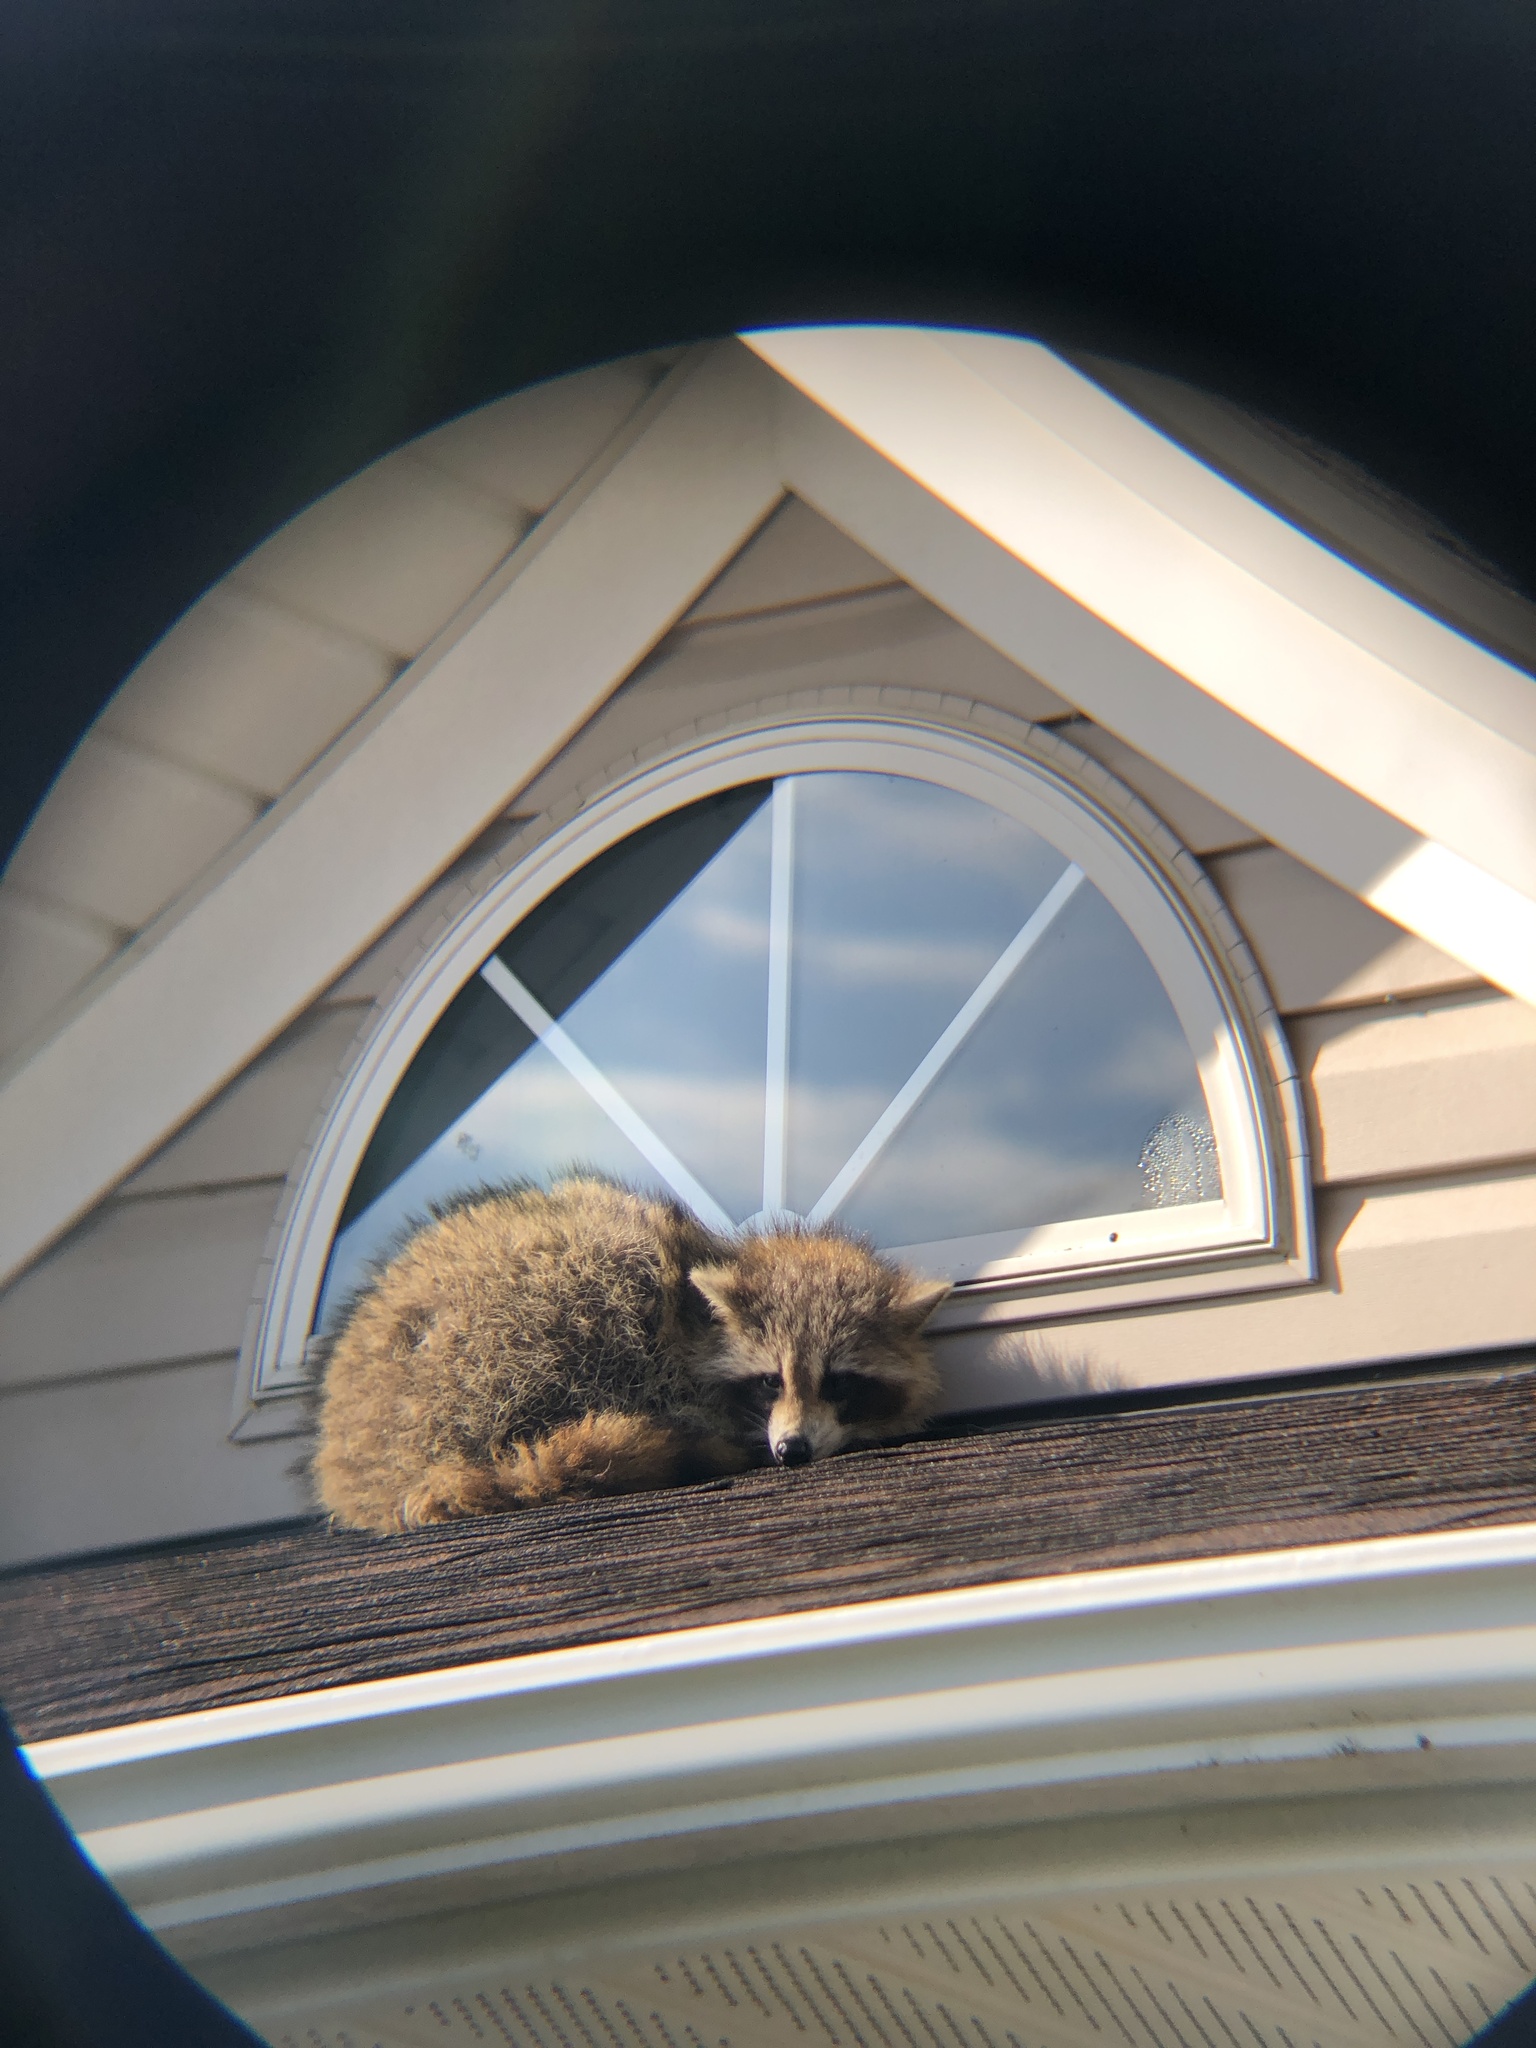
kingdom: Animalia
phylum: Chordata
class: Mammalia
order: Carnivora
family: Procyonidae
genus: Procyon
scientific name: Procyon lotor
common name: Raccoon
